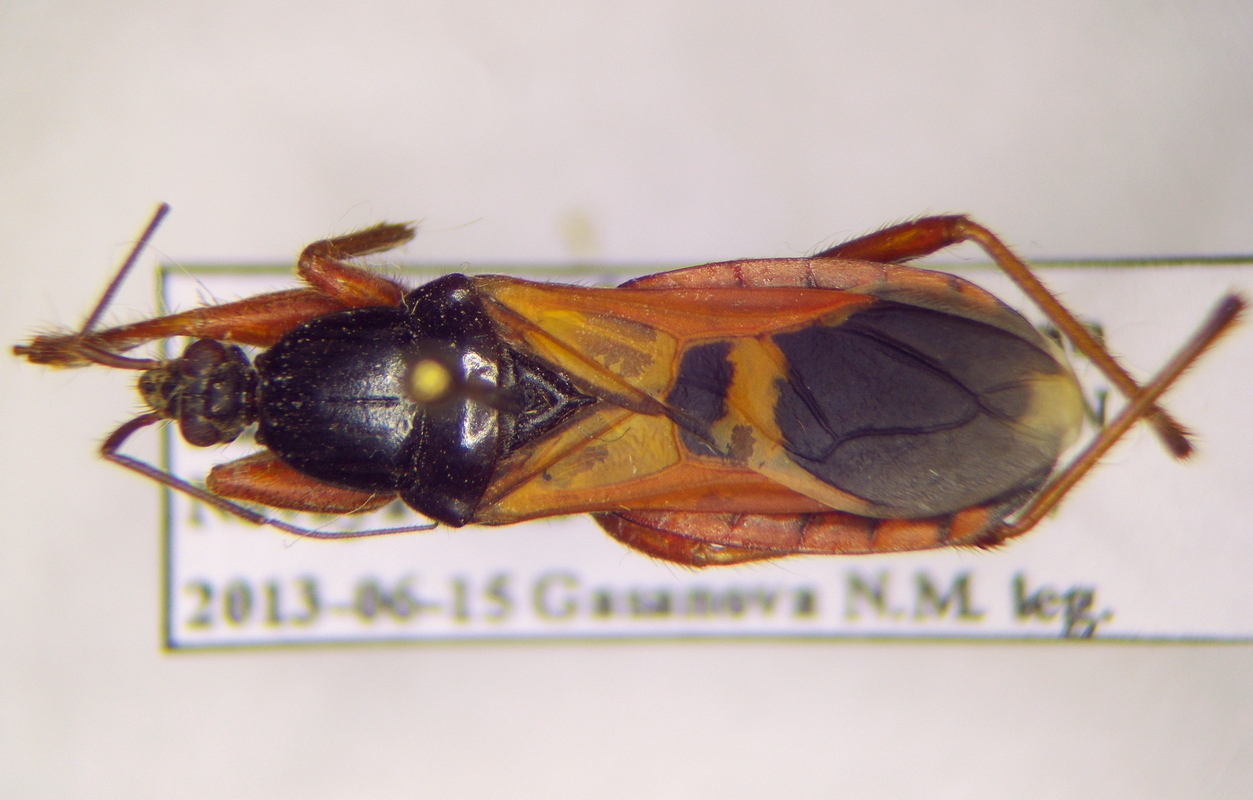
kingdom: Animalia
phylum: Arthropoda
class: Insecta
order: Hemiptera
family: Reduviidae
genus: Ectomocoris
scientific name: Ectomocoris ululans
